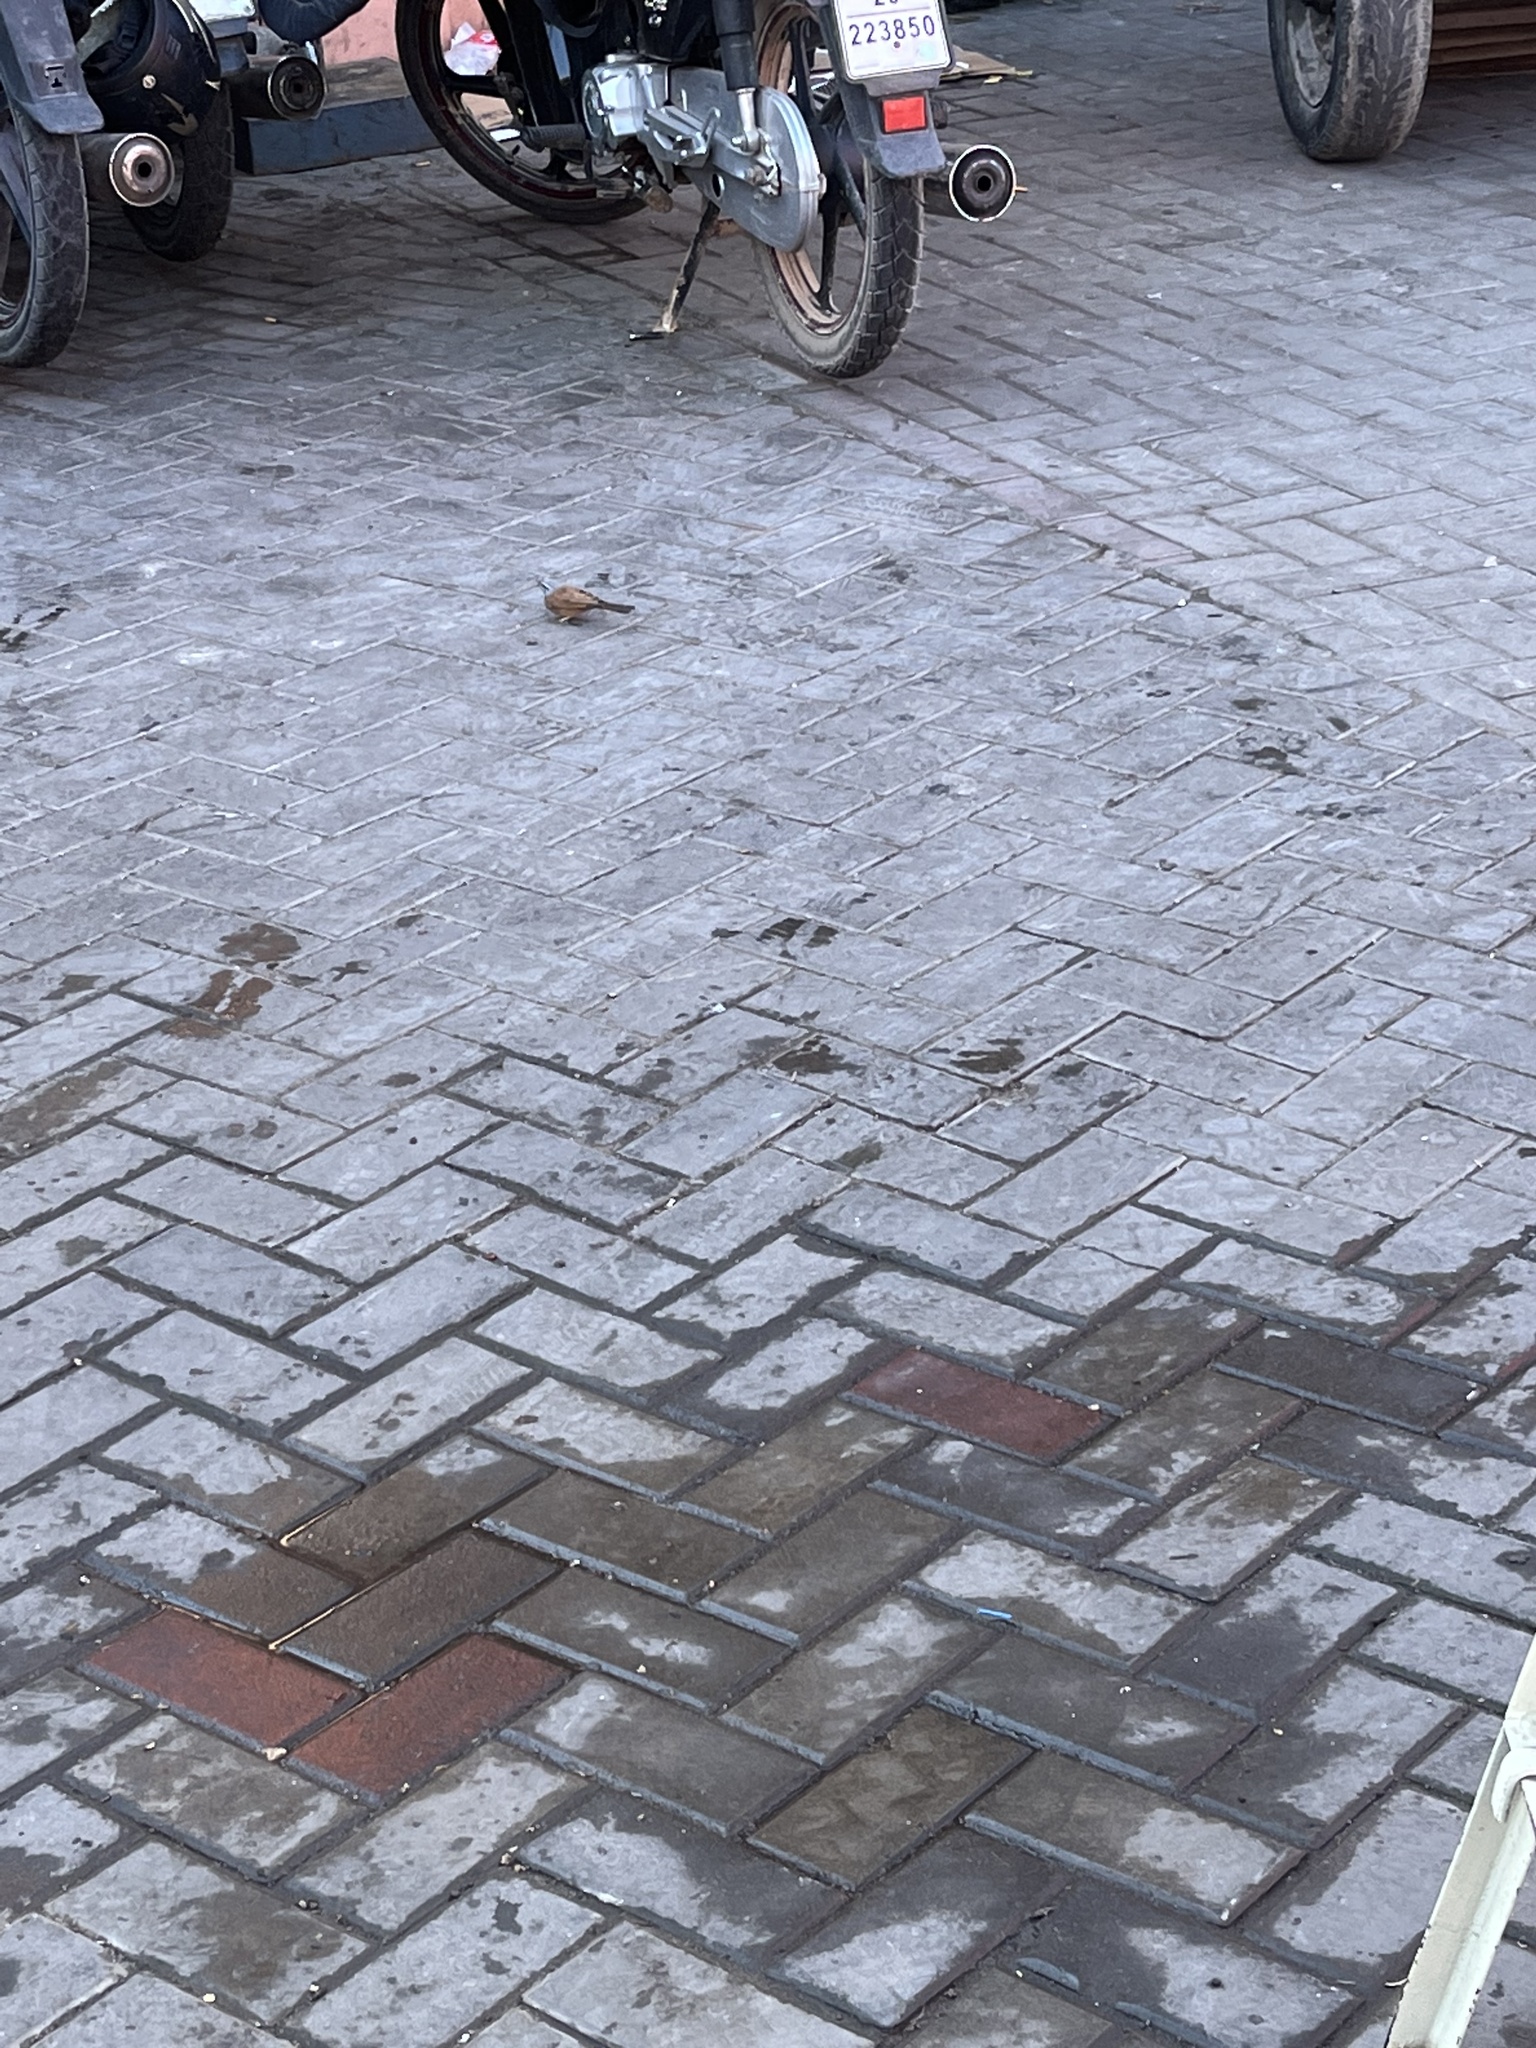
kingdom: Animalia
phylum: Chordata
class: Aves
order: Passeriformes
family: Emberizidae
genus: Emberiza
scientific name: Emberiza sahari
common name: House bunting
